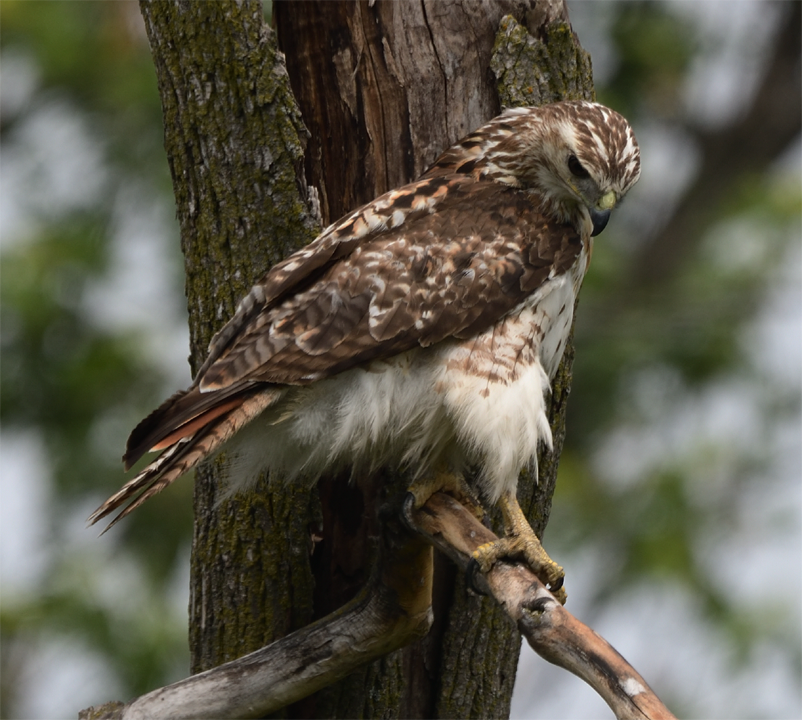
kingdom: Animalia
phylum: Chordata
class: Aves
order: Accipitriformes
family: Accipitridae
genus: Buteo
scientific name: Buteo jamaicensis
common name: Red-tailed hawk
